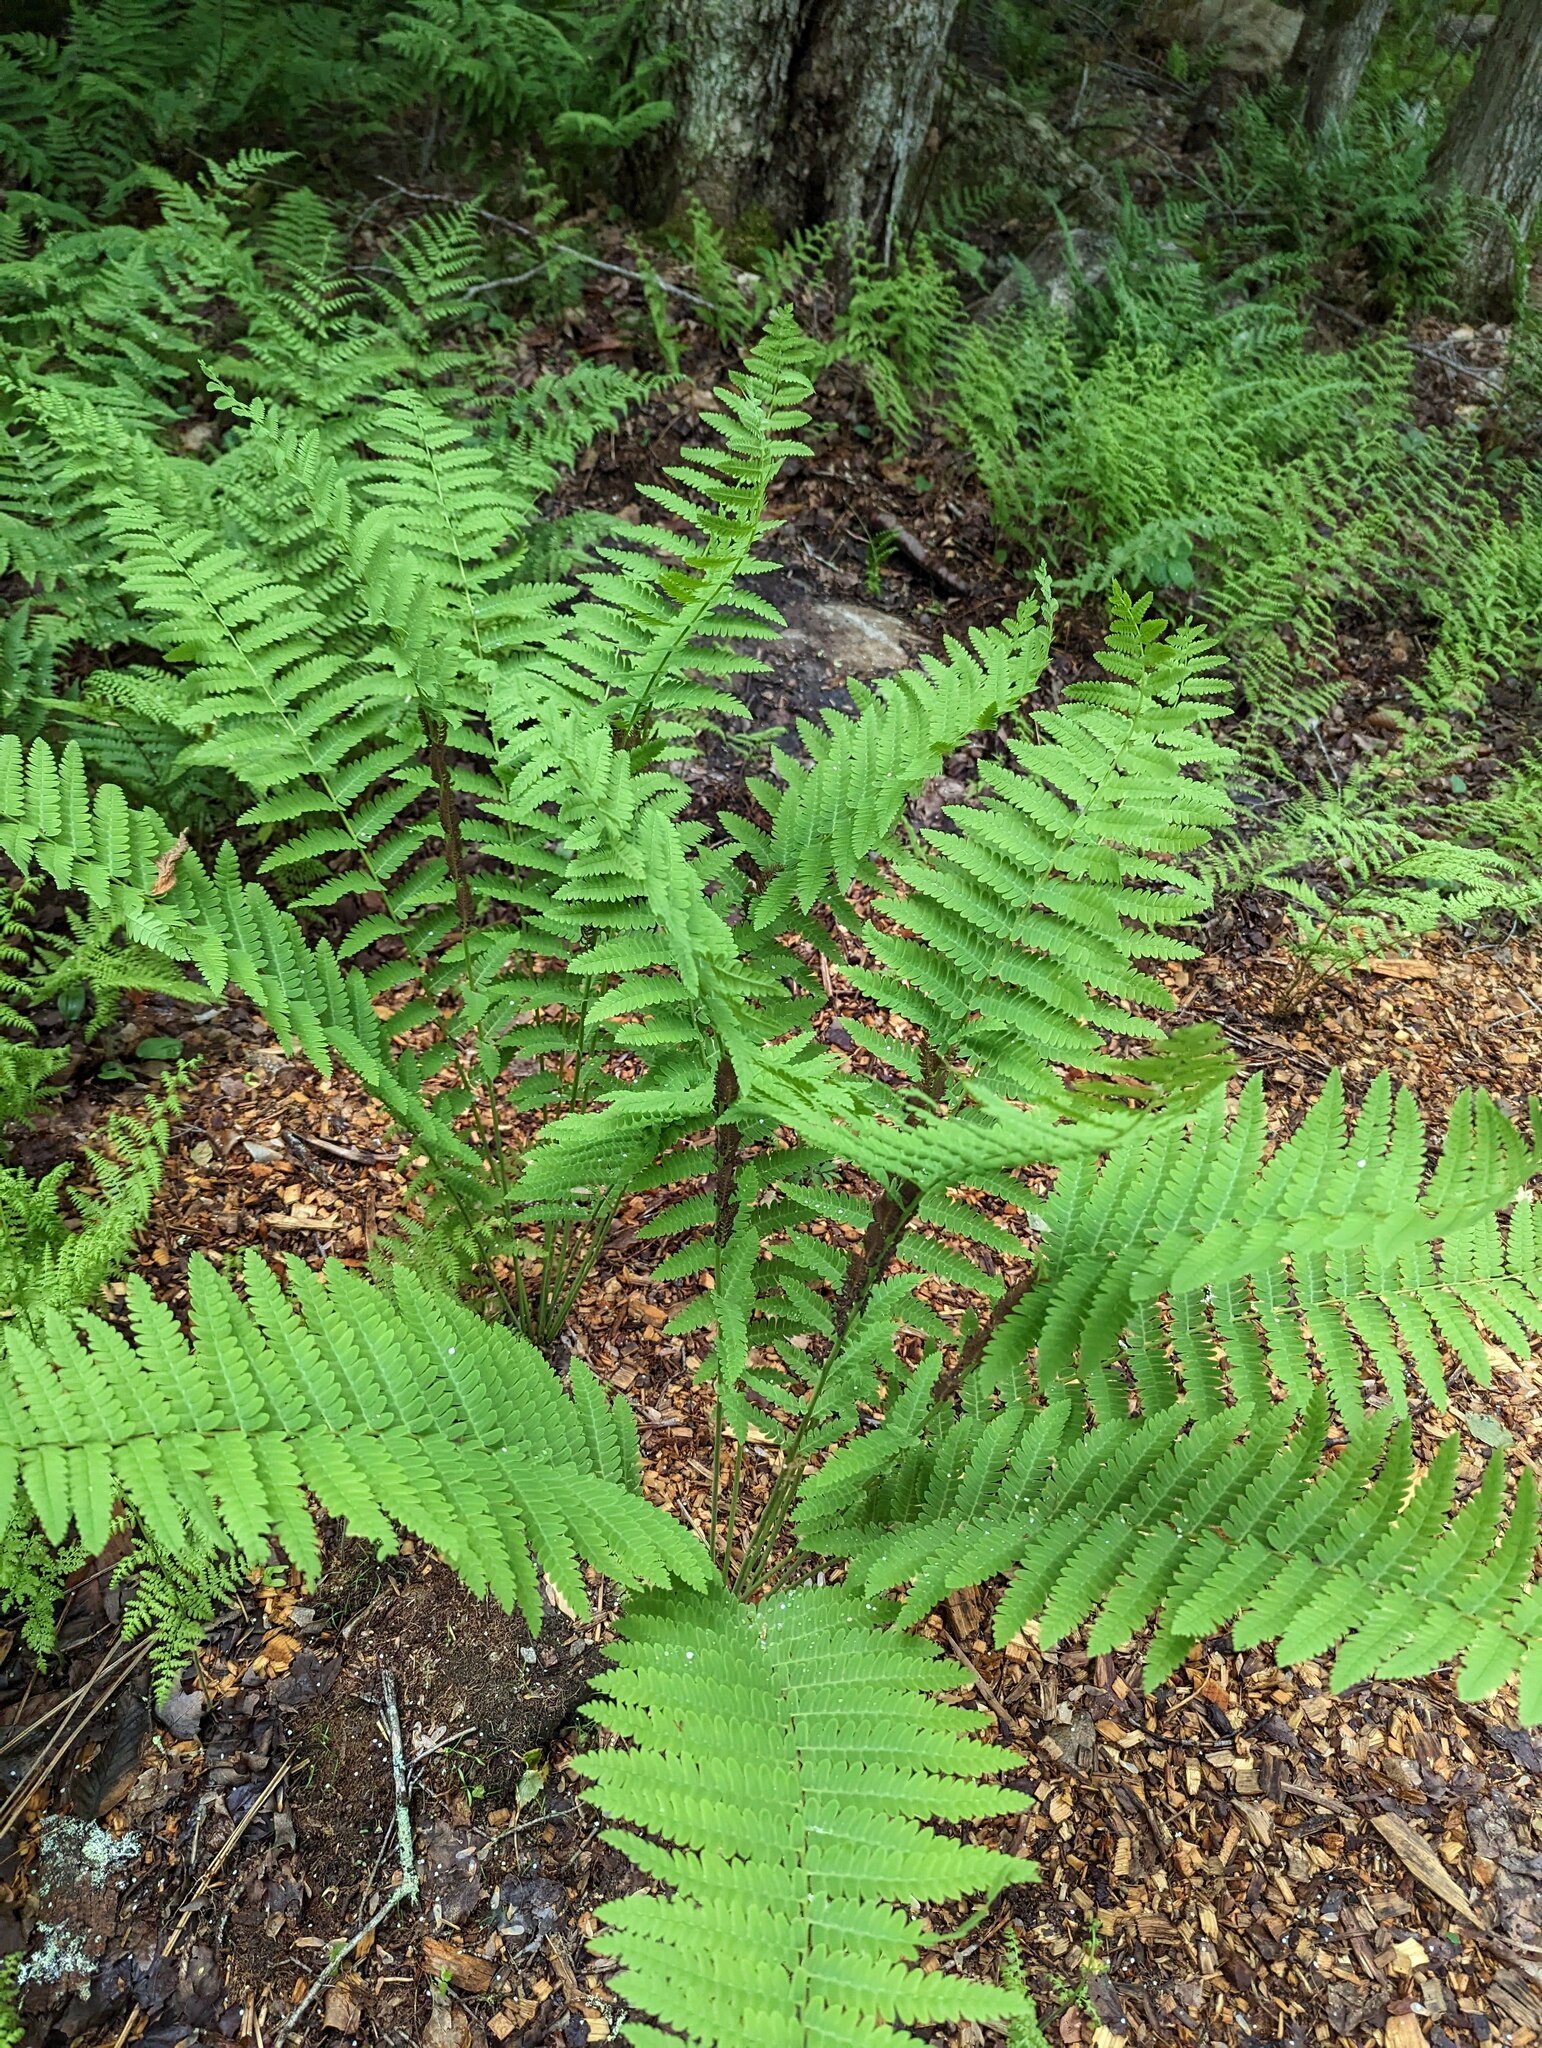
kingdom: Plantae
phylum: Tracheophyta
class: Polypodiopsida
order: Osmundales
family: Osmundaceae
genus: Claytosmunda
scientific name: Claytosmunda claytoniana
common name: Clayton's fern
